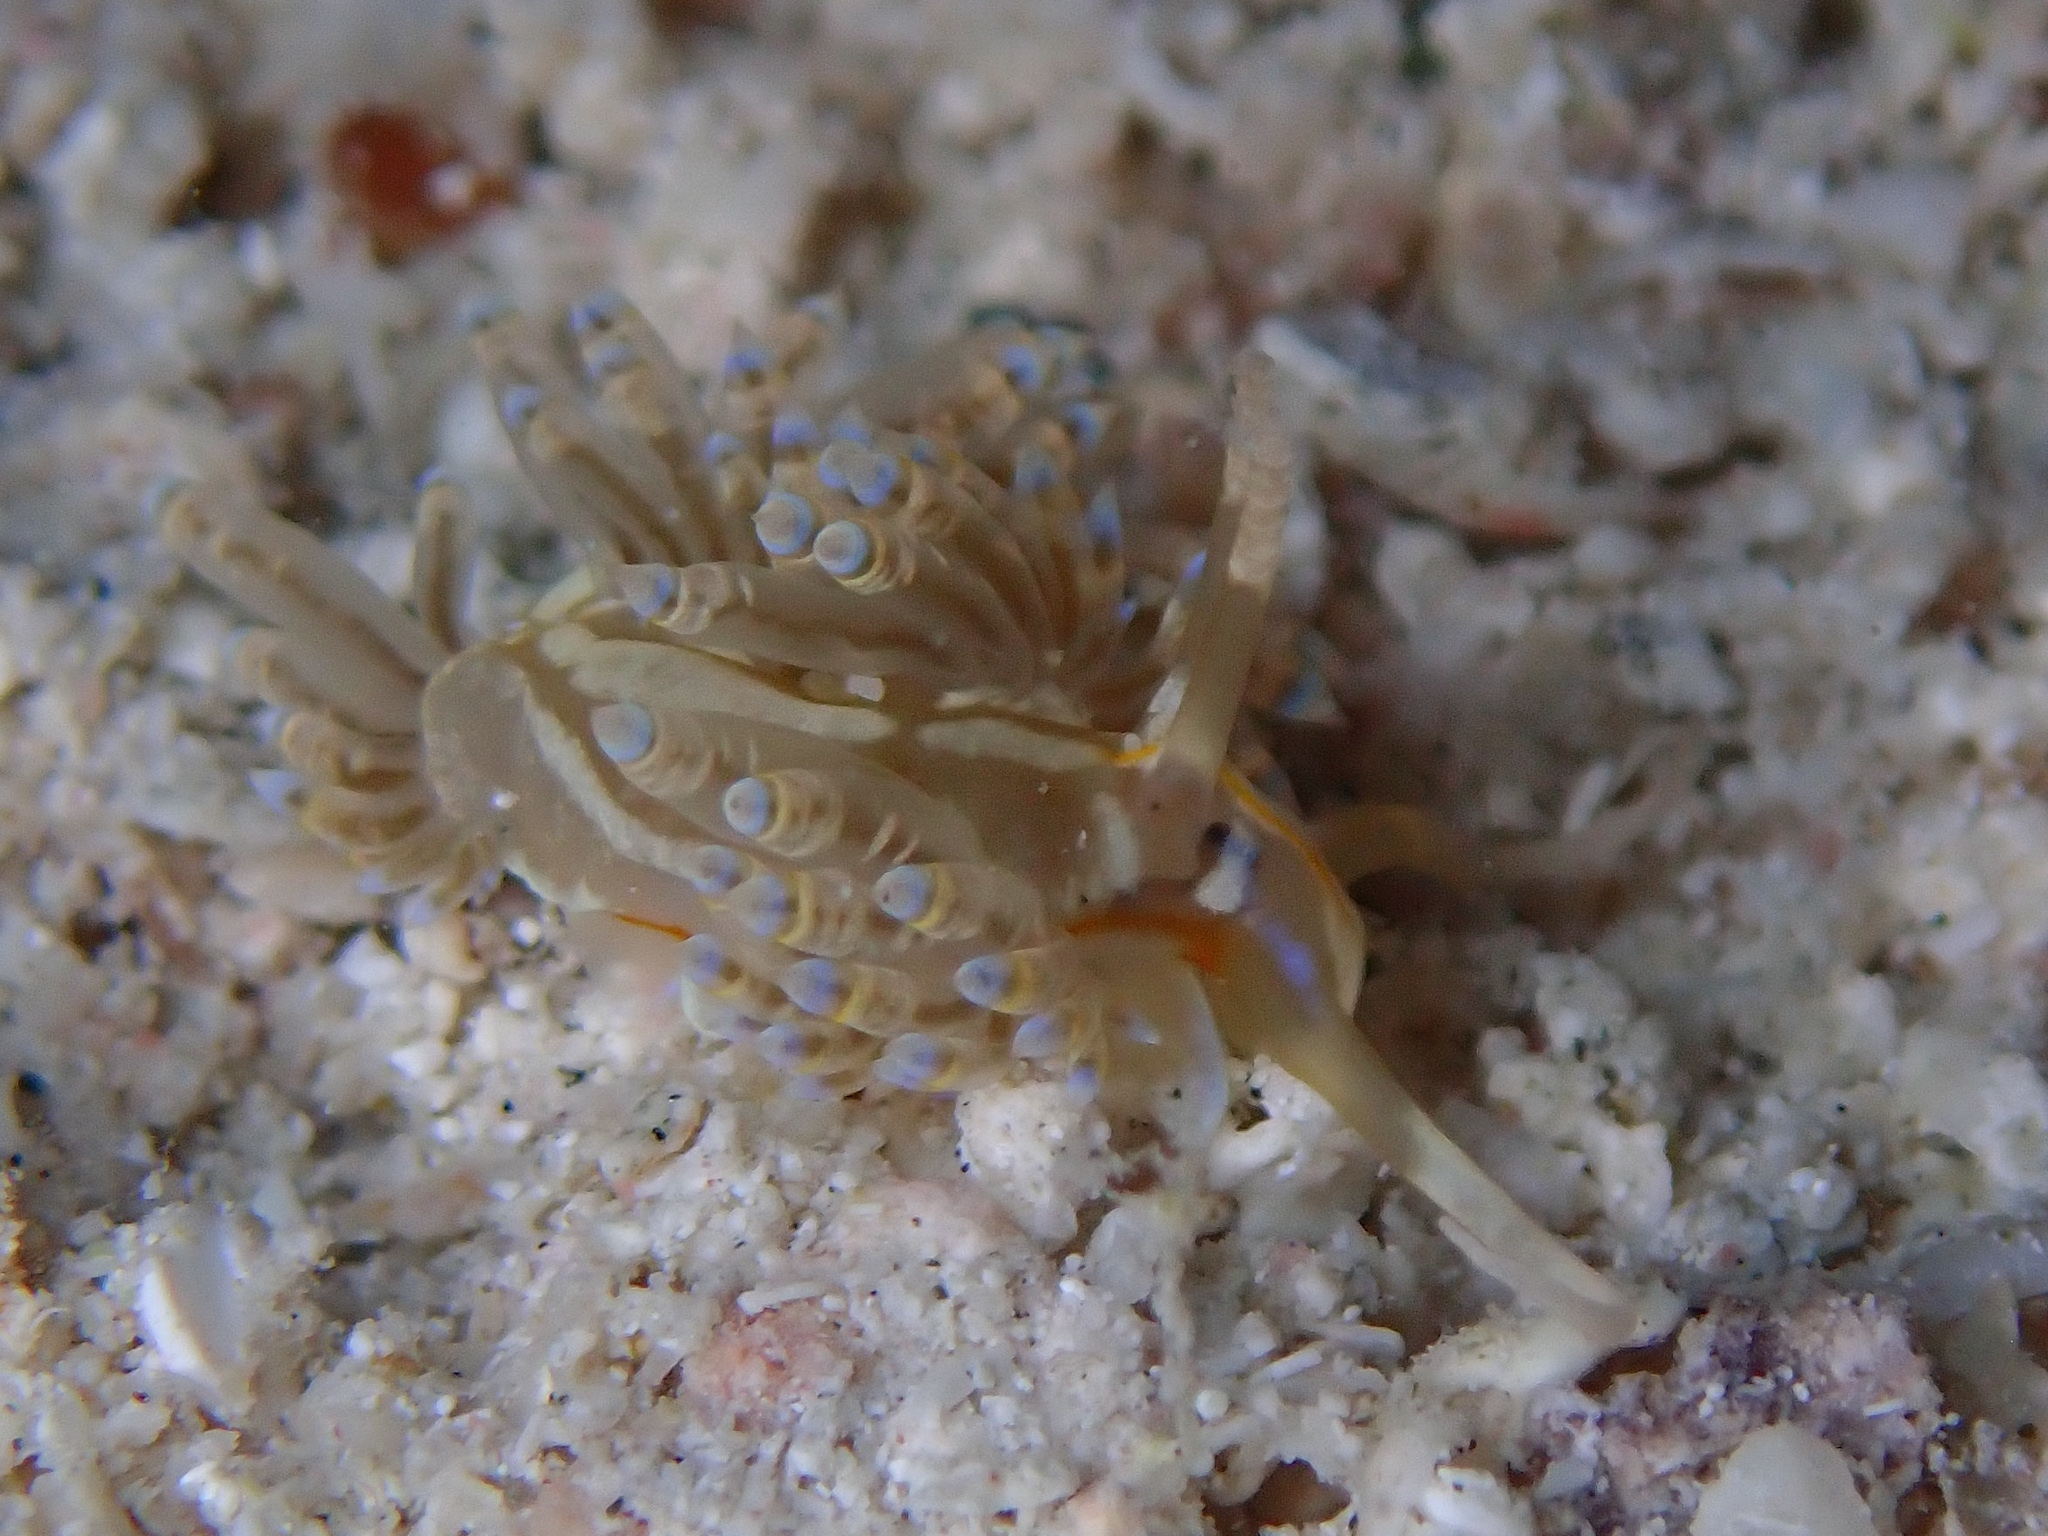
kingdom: Animalia
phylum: Mollusca
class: Gastropoda
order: Nudibranchia
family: Myrrhinidae
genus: Dondice
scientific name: Dondice occidentalis
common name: Fringe-back nudibranch
